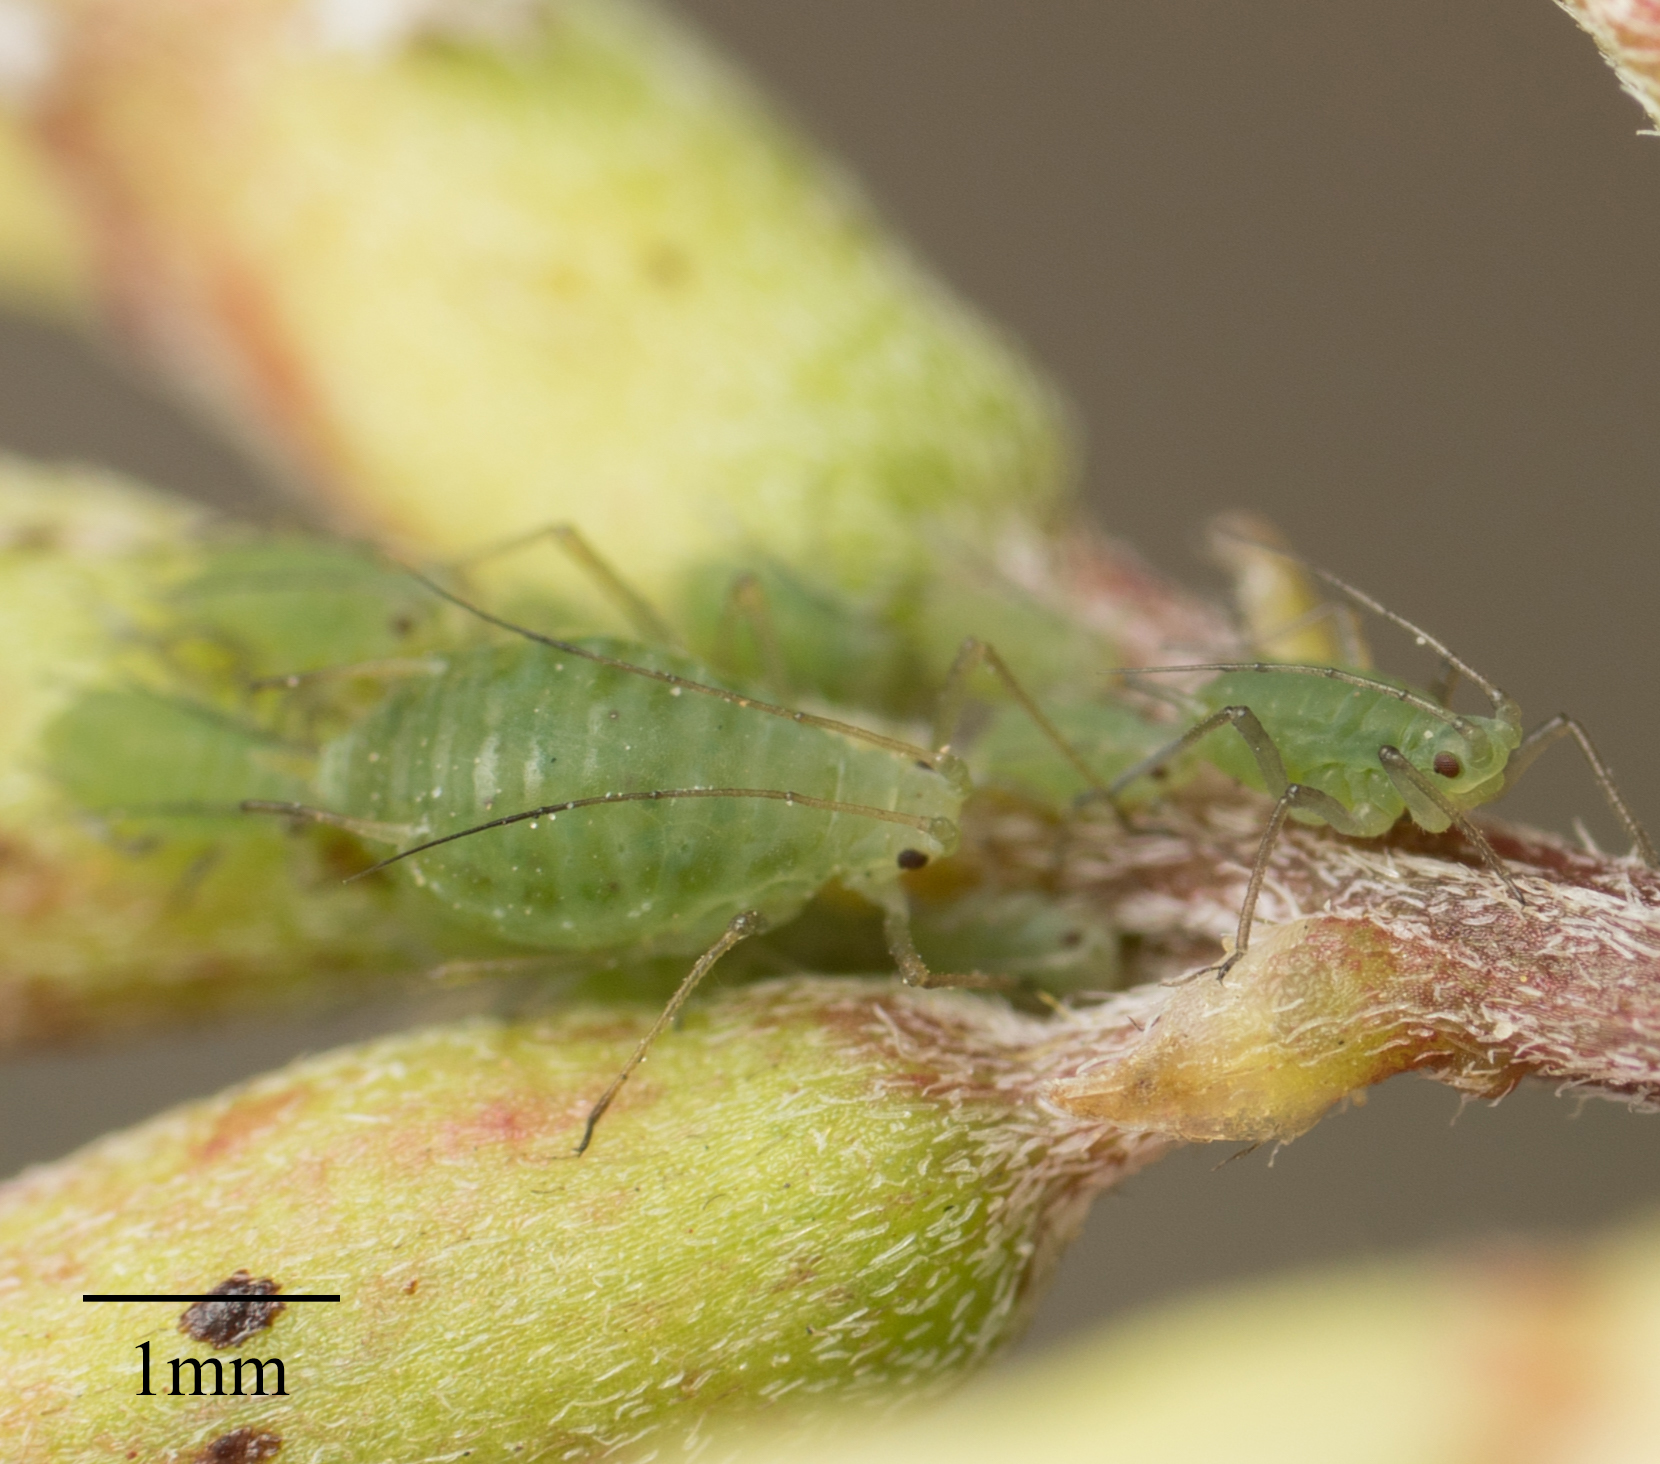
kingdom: Animalia
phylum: Arthropoda
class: Insecta
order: Hemiptera
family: Aphididae
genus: Acyrthosiphon
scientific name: Acyrthosiphon kondoi
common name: Blue alfalfa aphid
